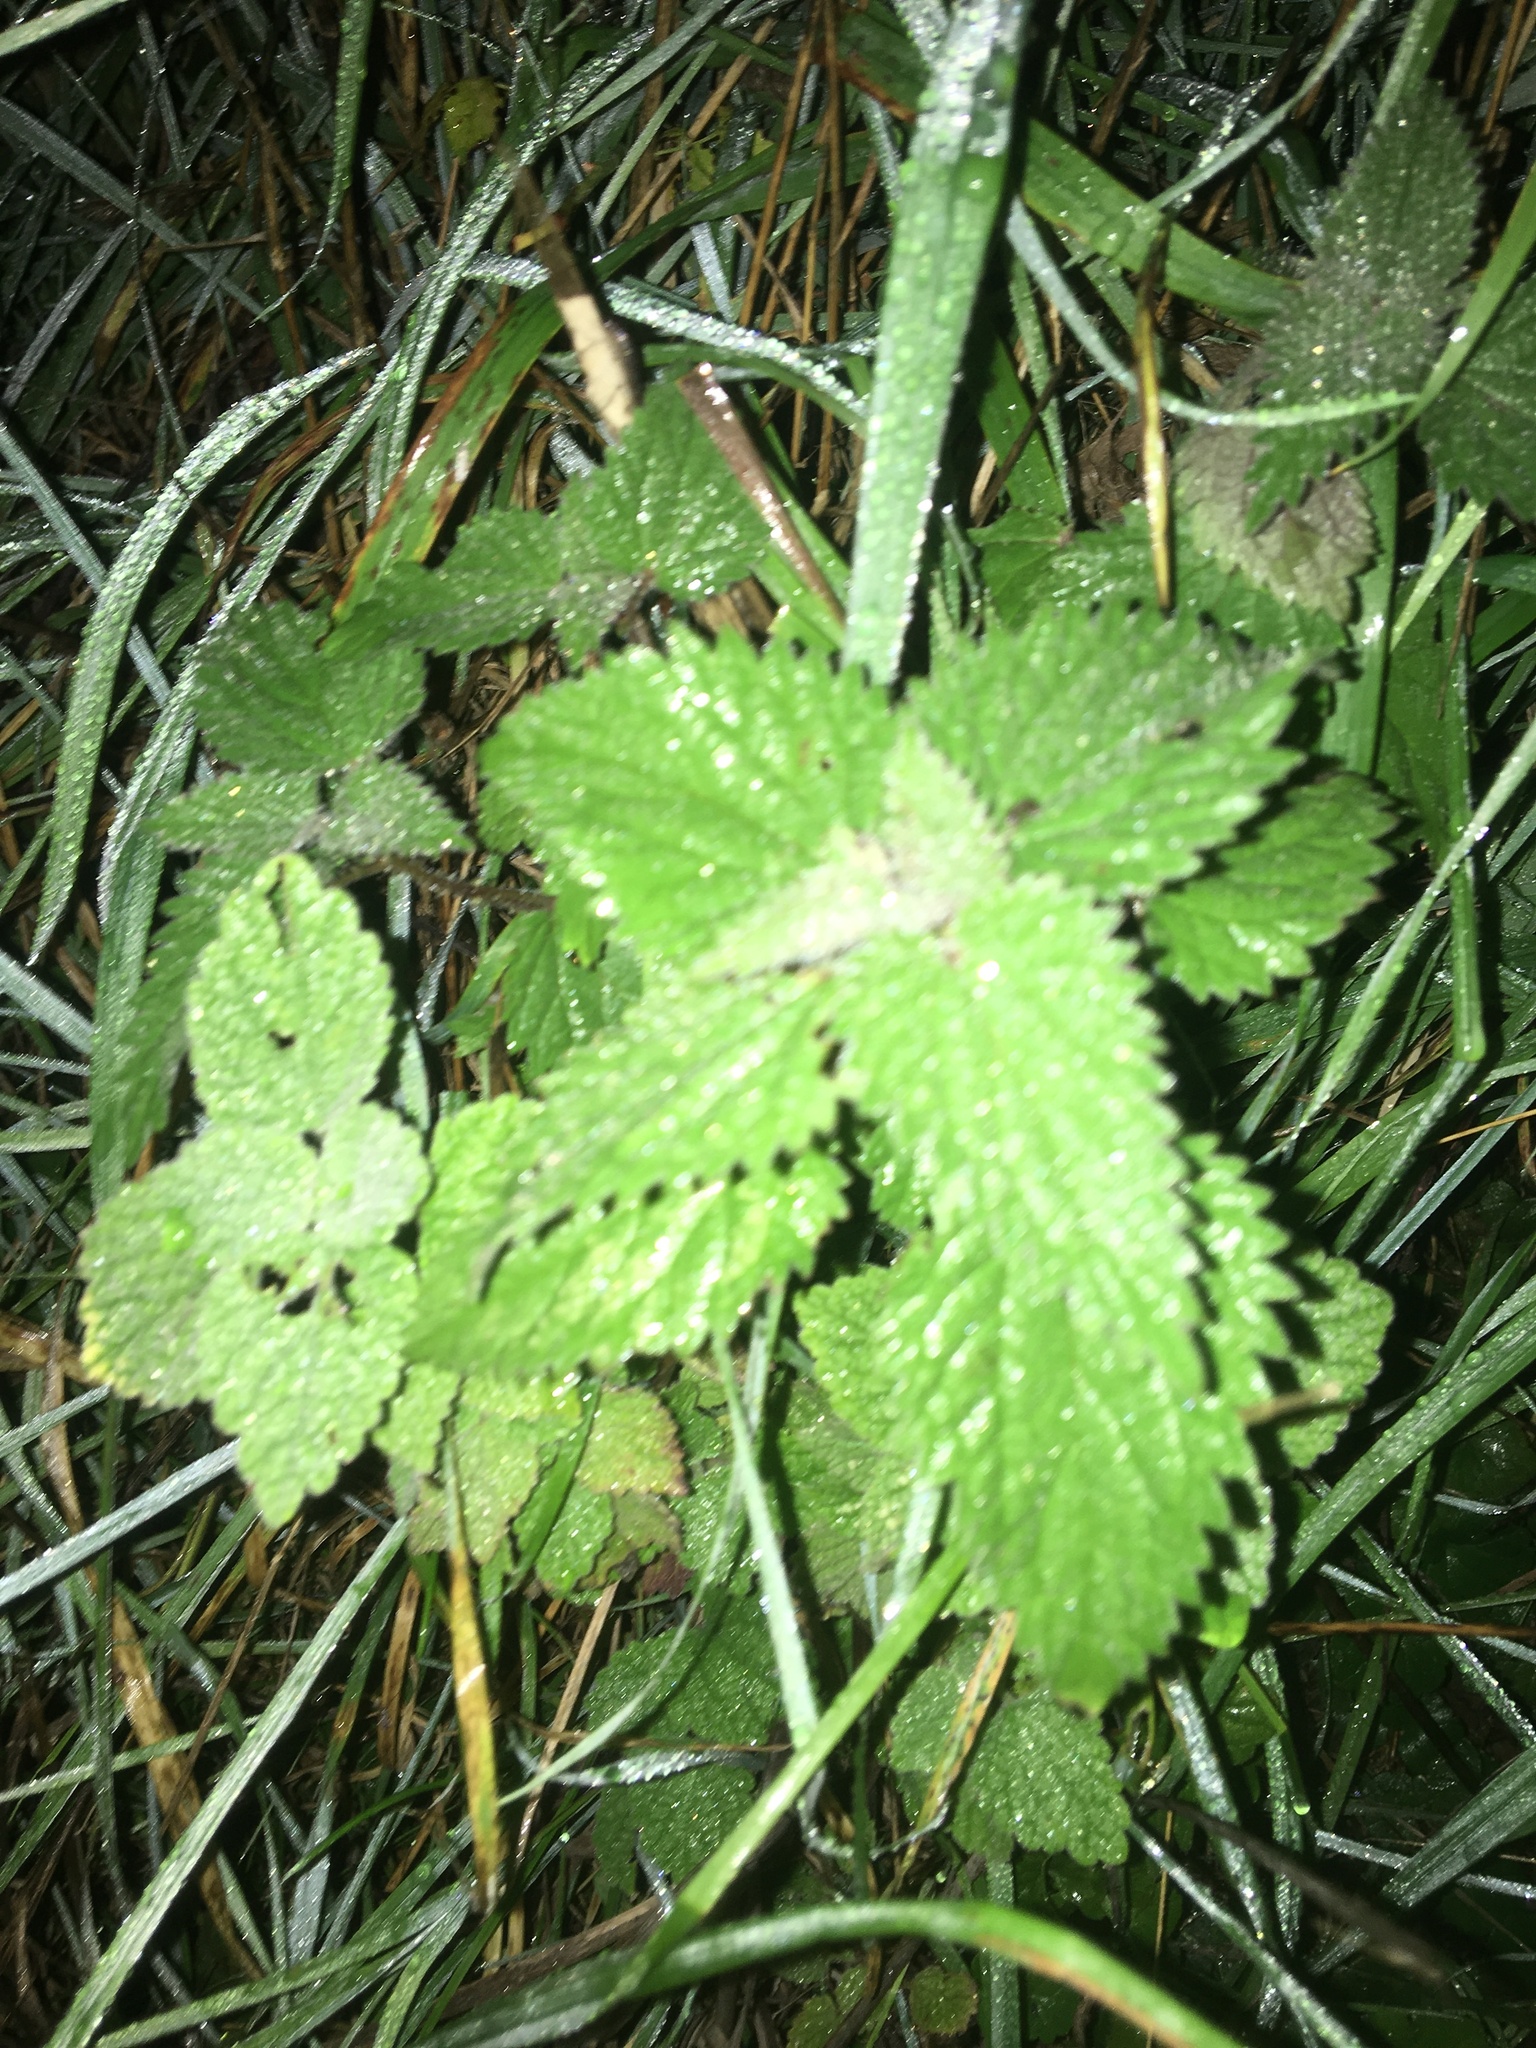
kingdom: Plantae
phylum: Tracheophyta
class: Magnoliopsida
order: Rosales
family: Urticaceae
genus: Urtica
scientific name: Urtica dioica
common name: Common nettle
